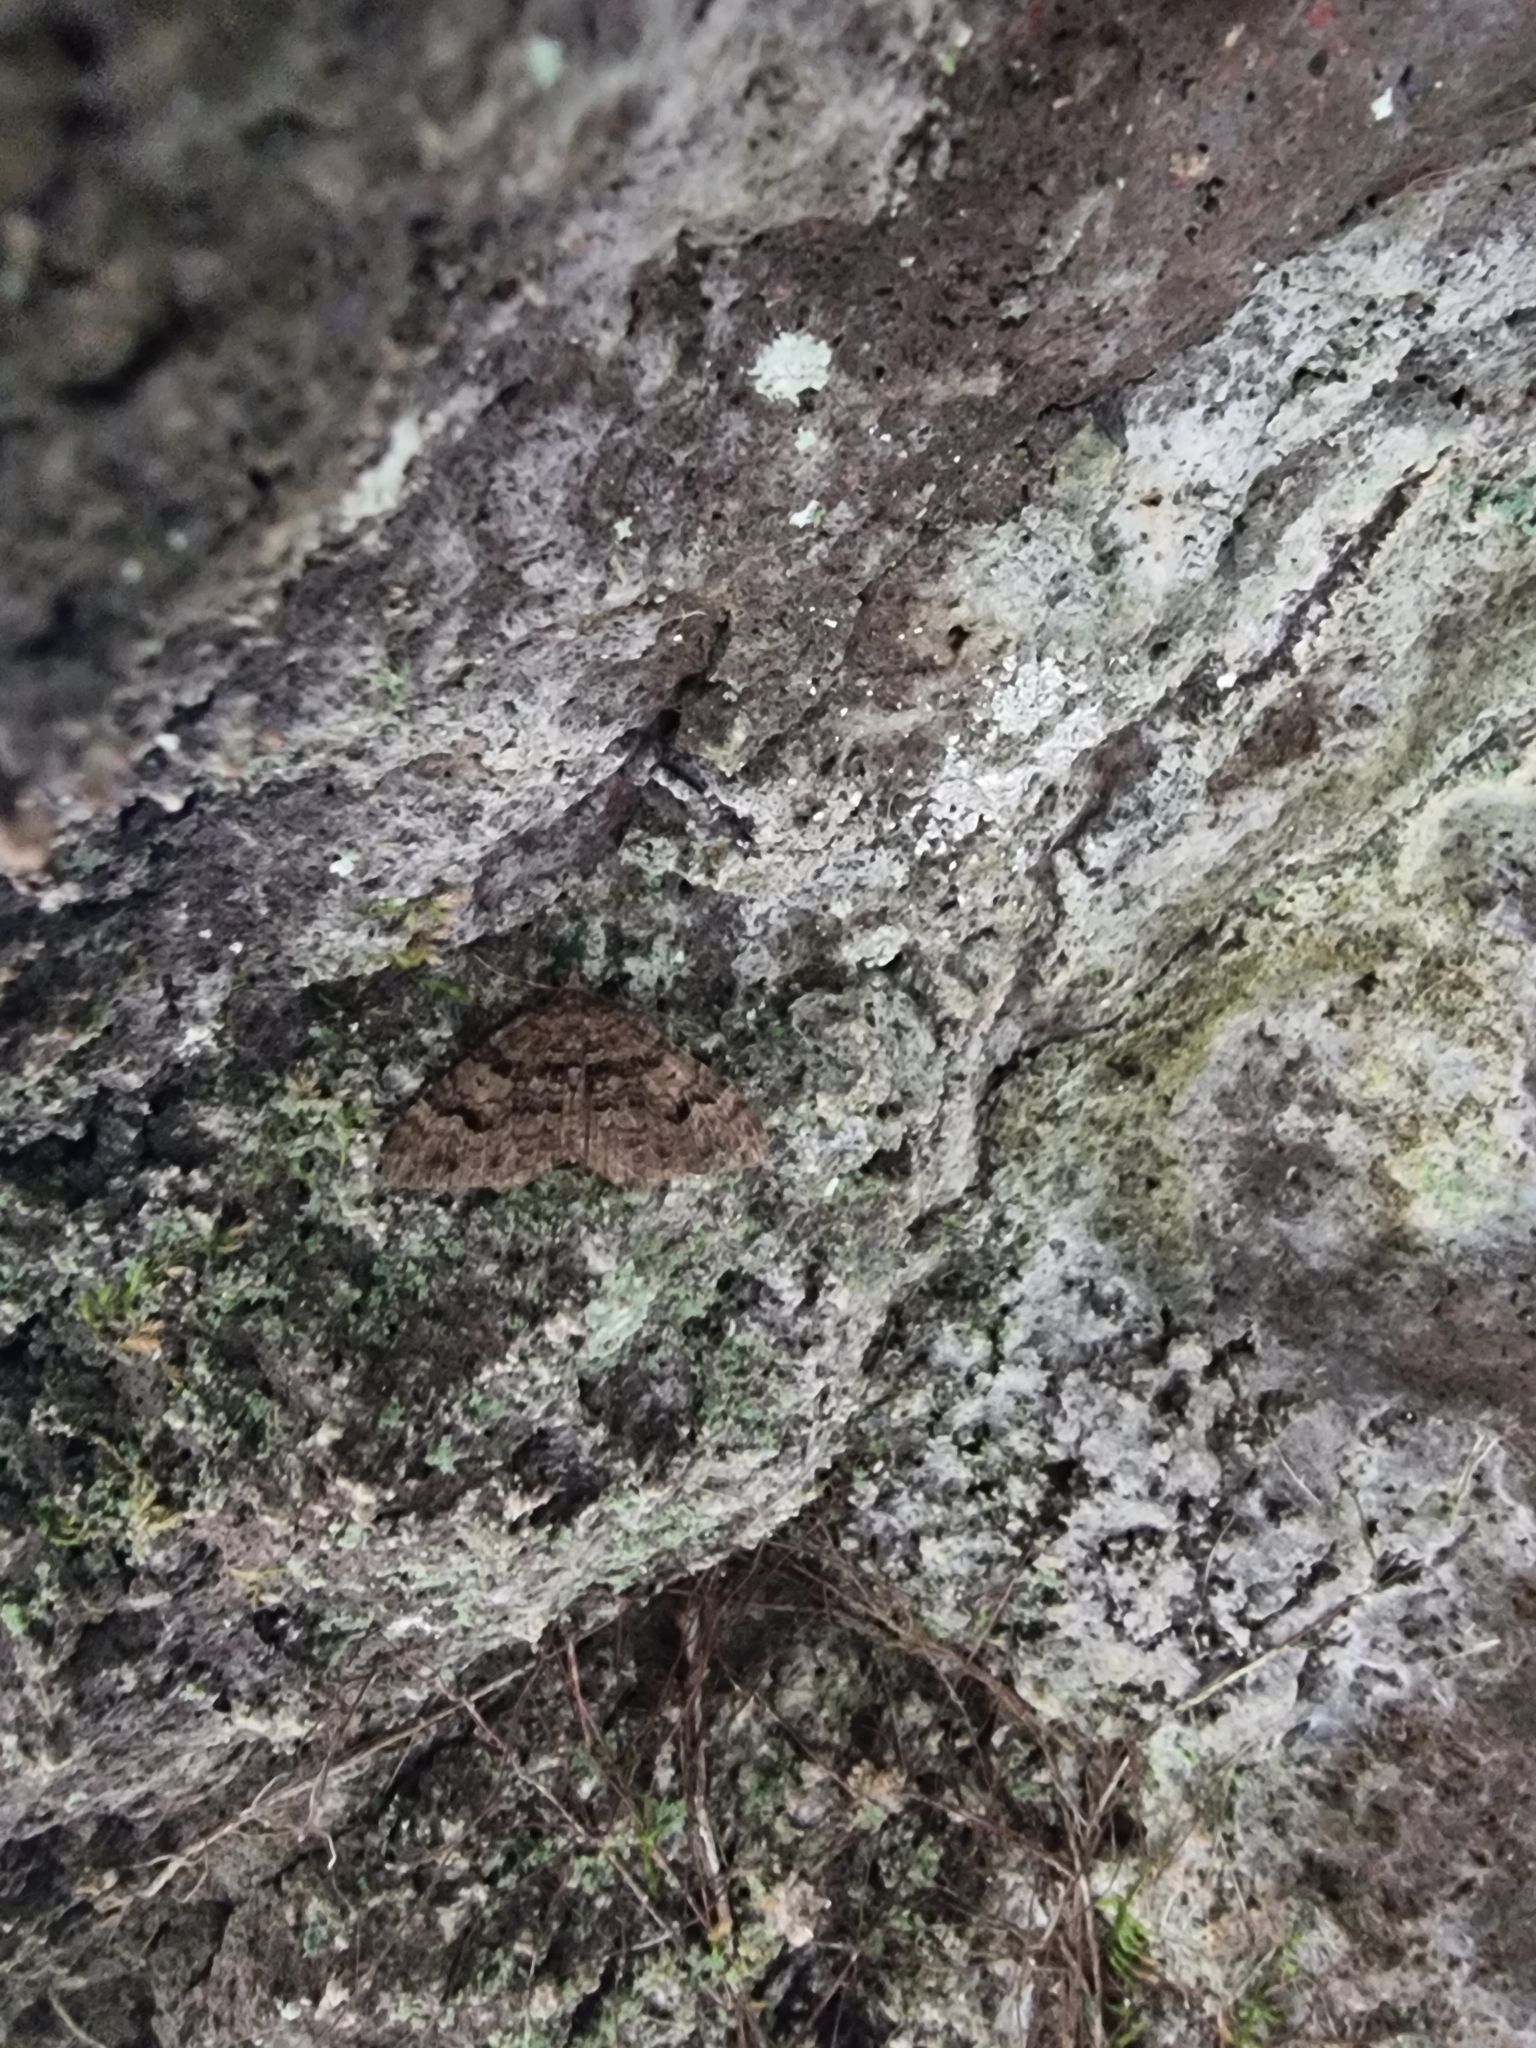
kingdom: Animalia
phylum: Arthropoda
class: Insecta
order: Lepidoptera
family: Geometridae
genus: Xanthorhoe
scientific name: Xanthorhoe rupicola
